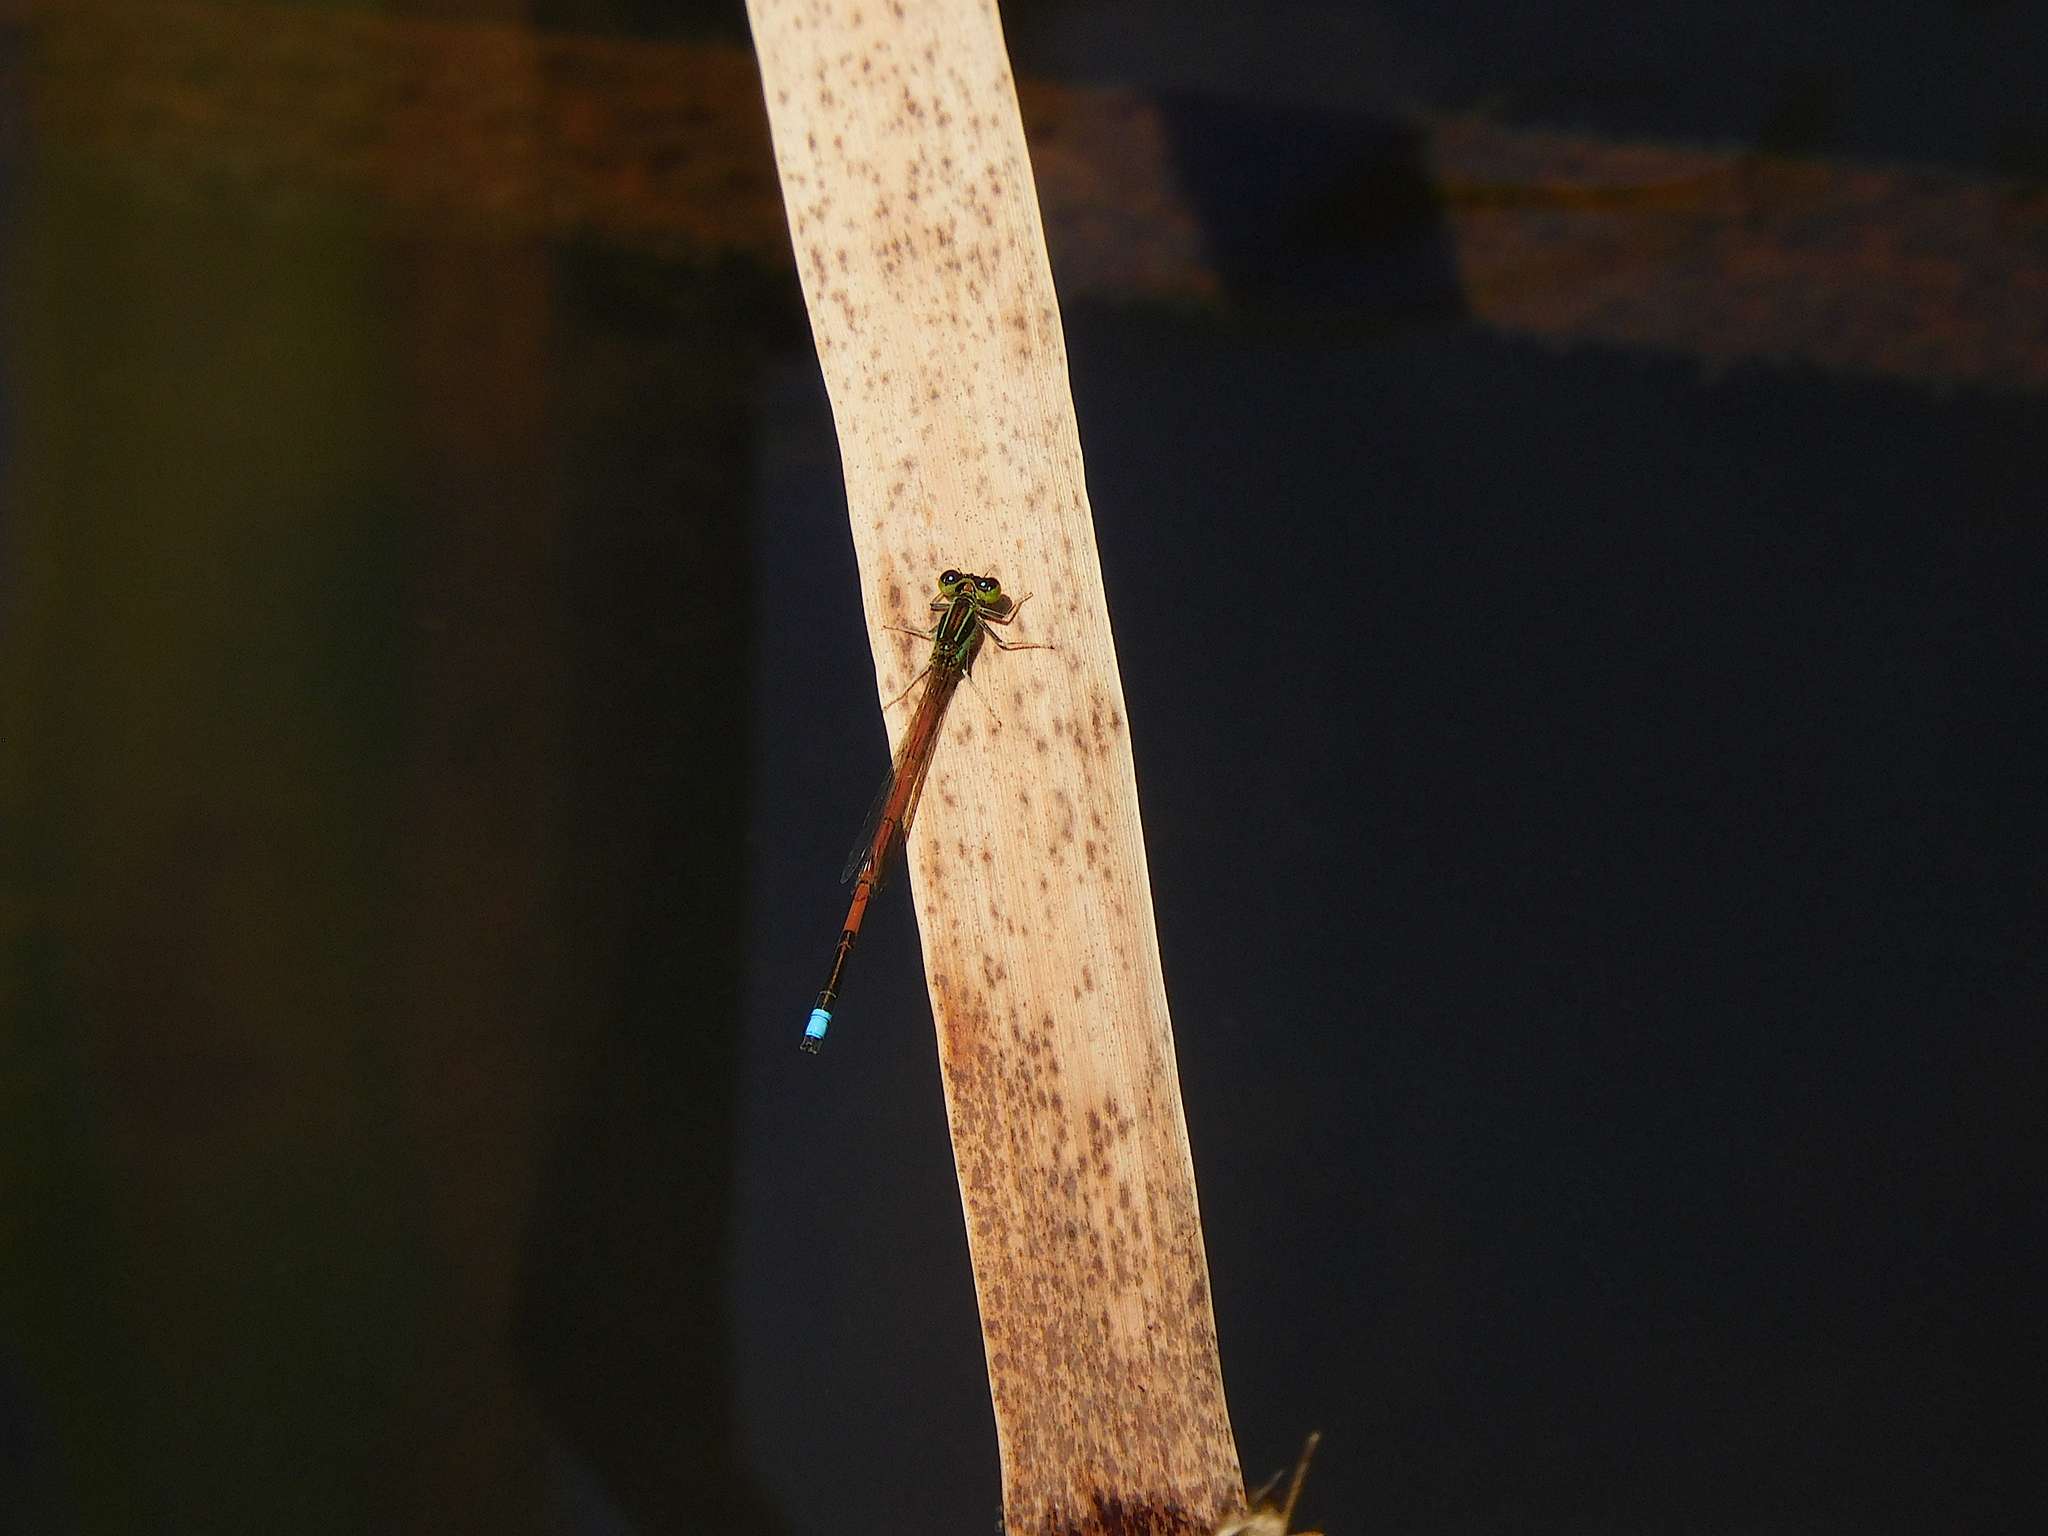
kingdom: Animalia
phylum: Arthropoda
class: Insecta
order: Odonata
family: Coenagrionidae
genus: Ischnura
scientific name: Ischnura aurora
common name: Gossamer damselfly
